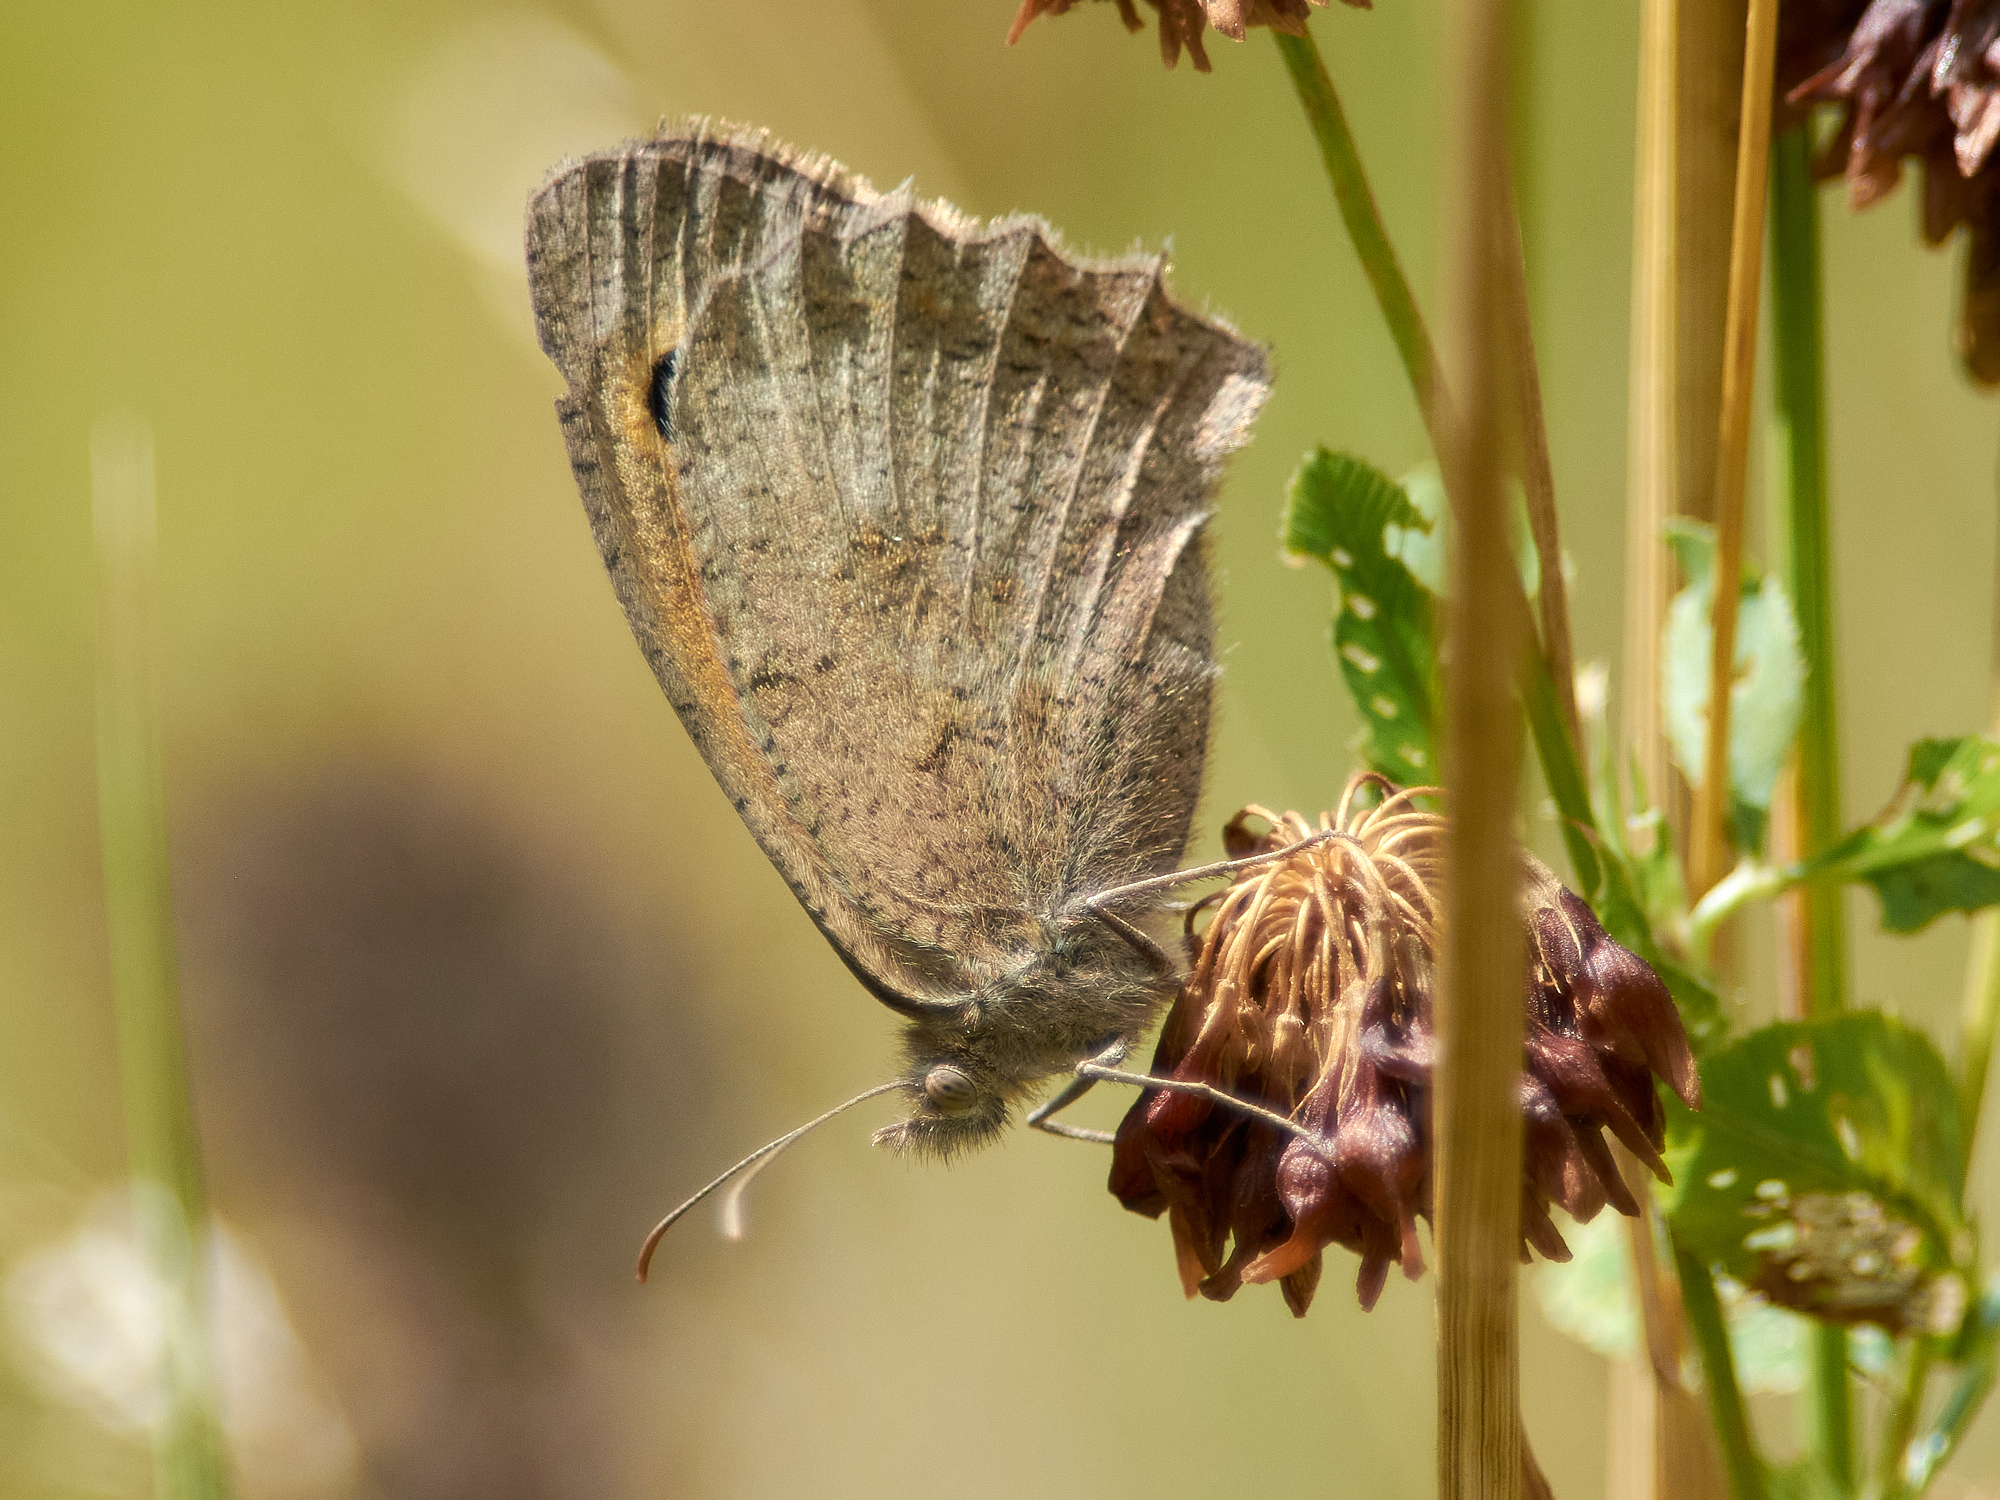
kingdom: Animalia
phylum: Arthropoda
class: Insecta
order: Lepidoptera
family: Nymphalidae
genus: Hyponephele
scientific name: Hyponephele lycaon
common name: Dusky meadow brown
